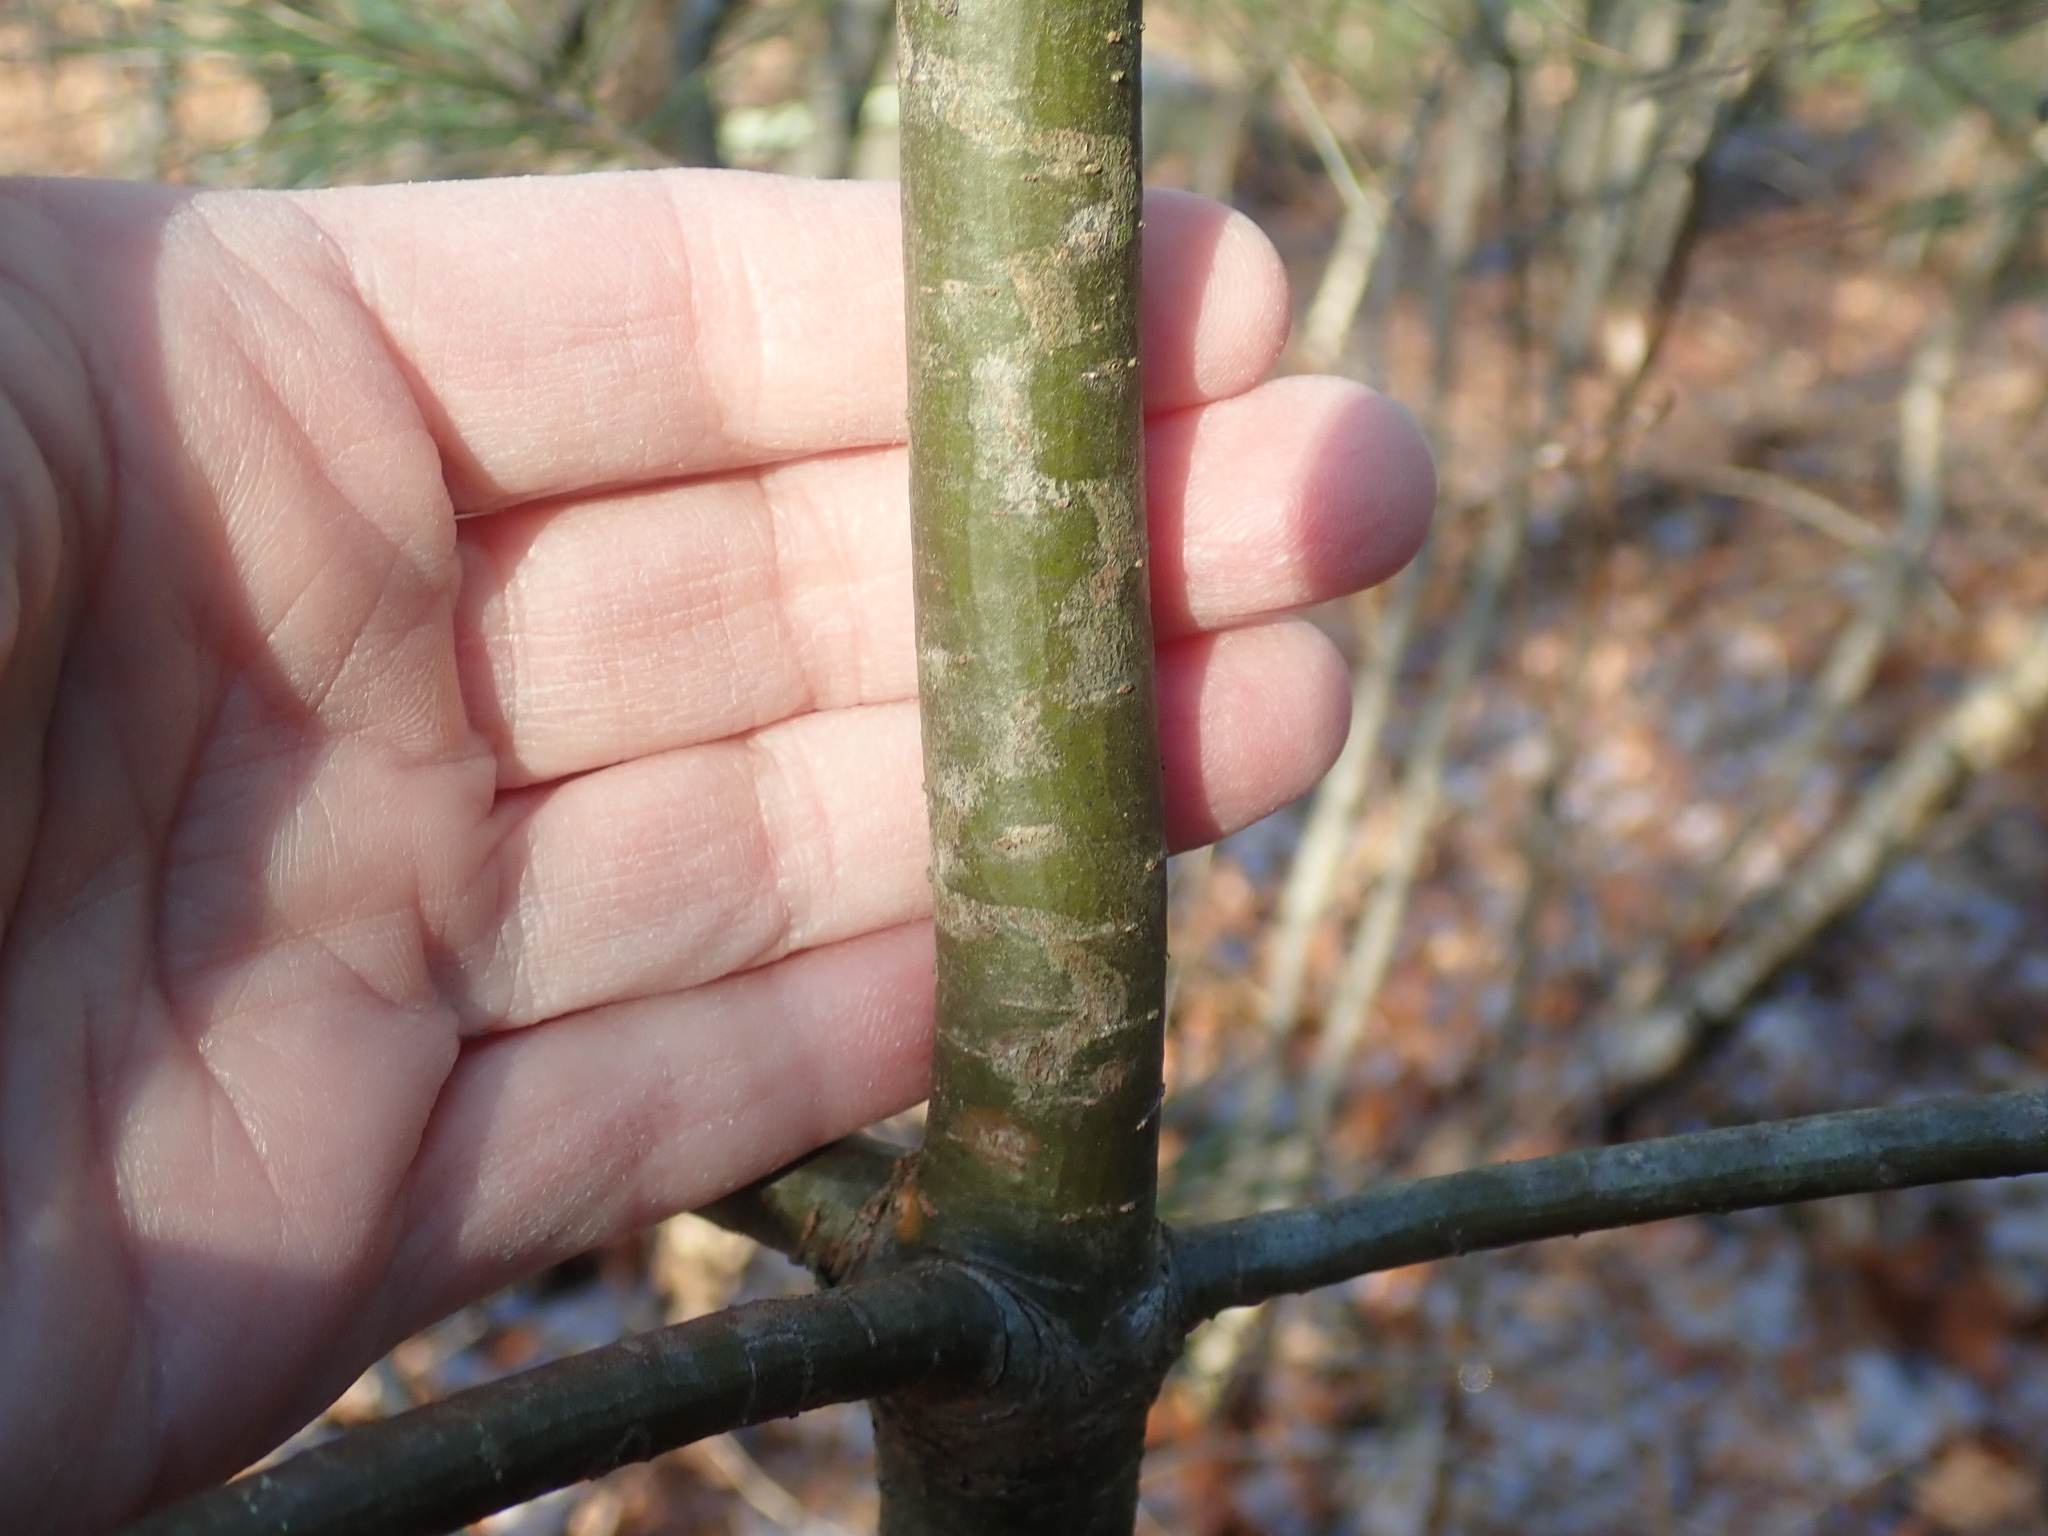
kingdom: Animalia
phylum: Arthropoda
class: Insecta
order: Lepidoptera
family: Gracillariidae
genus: Marmara
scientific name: Marmara fasciella
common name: White pine barkminer moth
